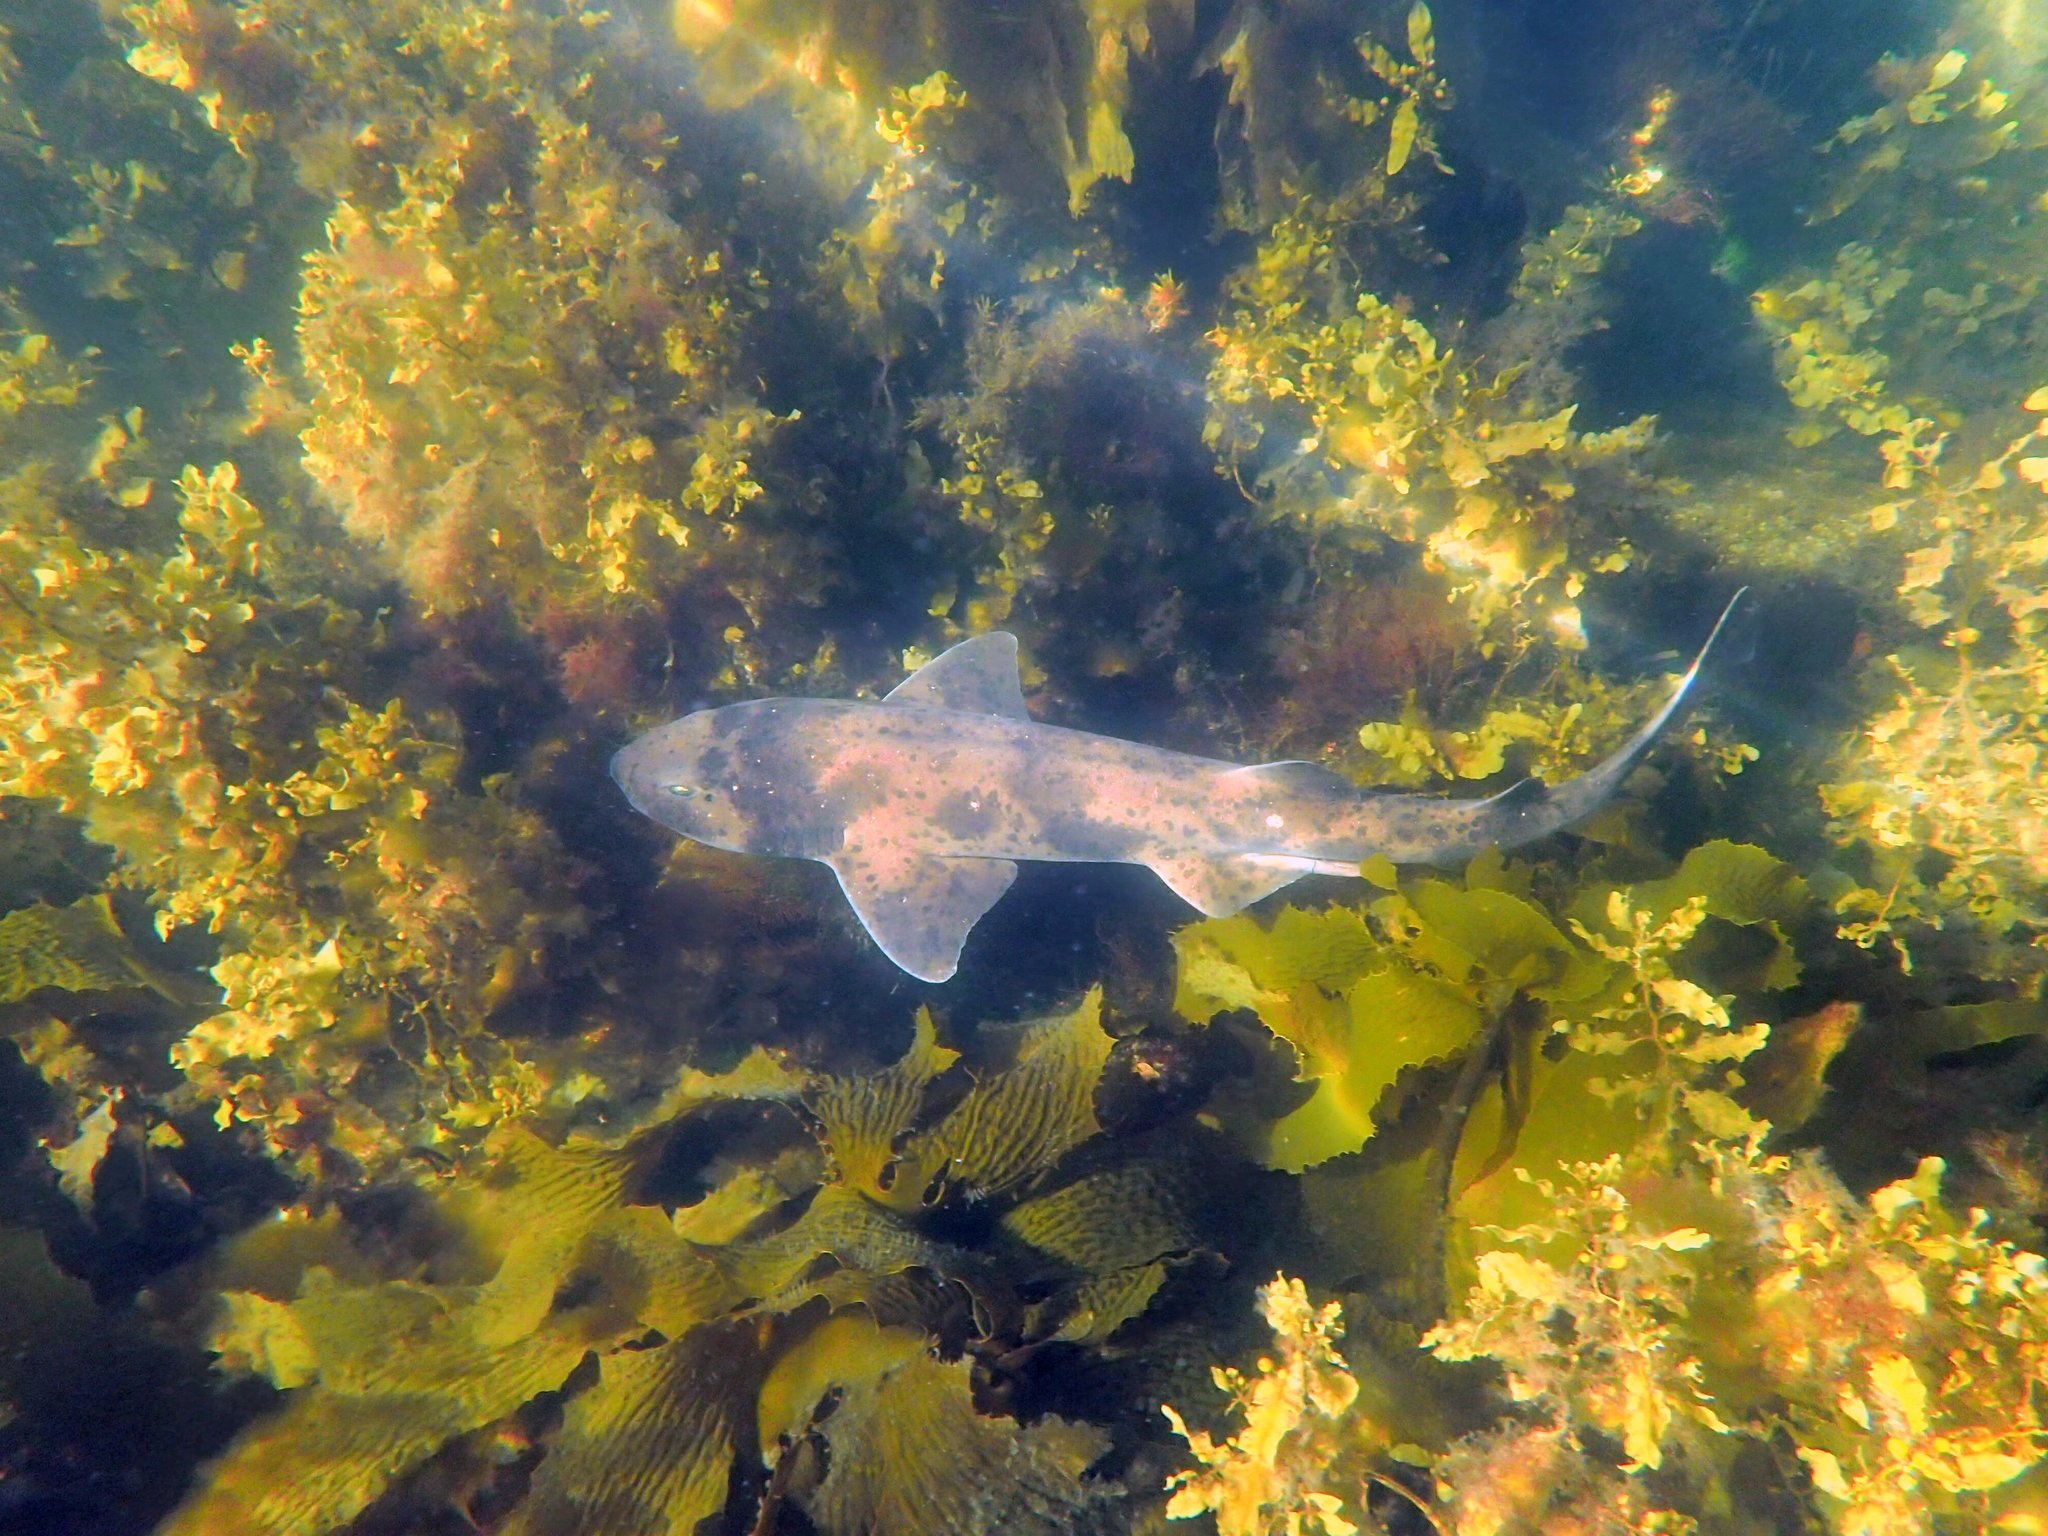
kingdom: Animalia
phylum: Chordata
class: Elasmobranchii
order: Carcharhiniformes
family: Scyliorhinidae
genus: Cephaloscyllium
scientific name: Cephaloscyllium laticeps
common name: Australian swellshark
